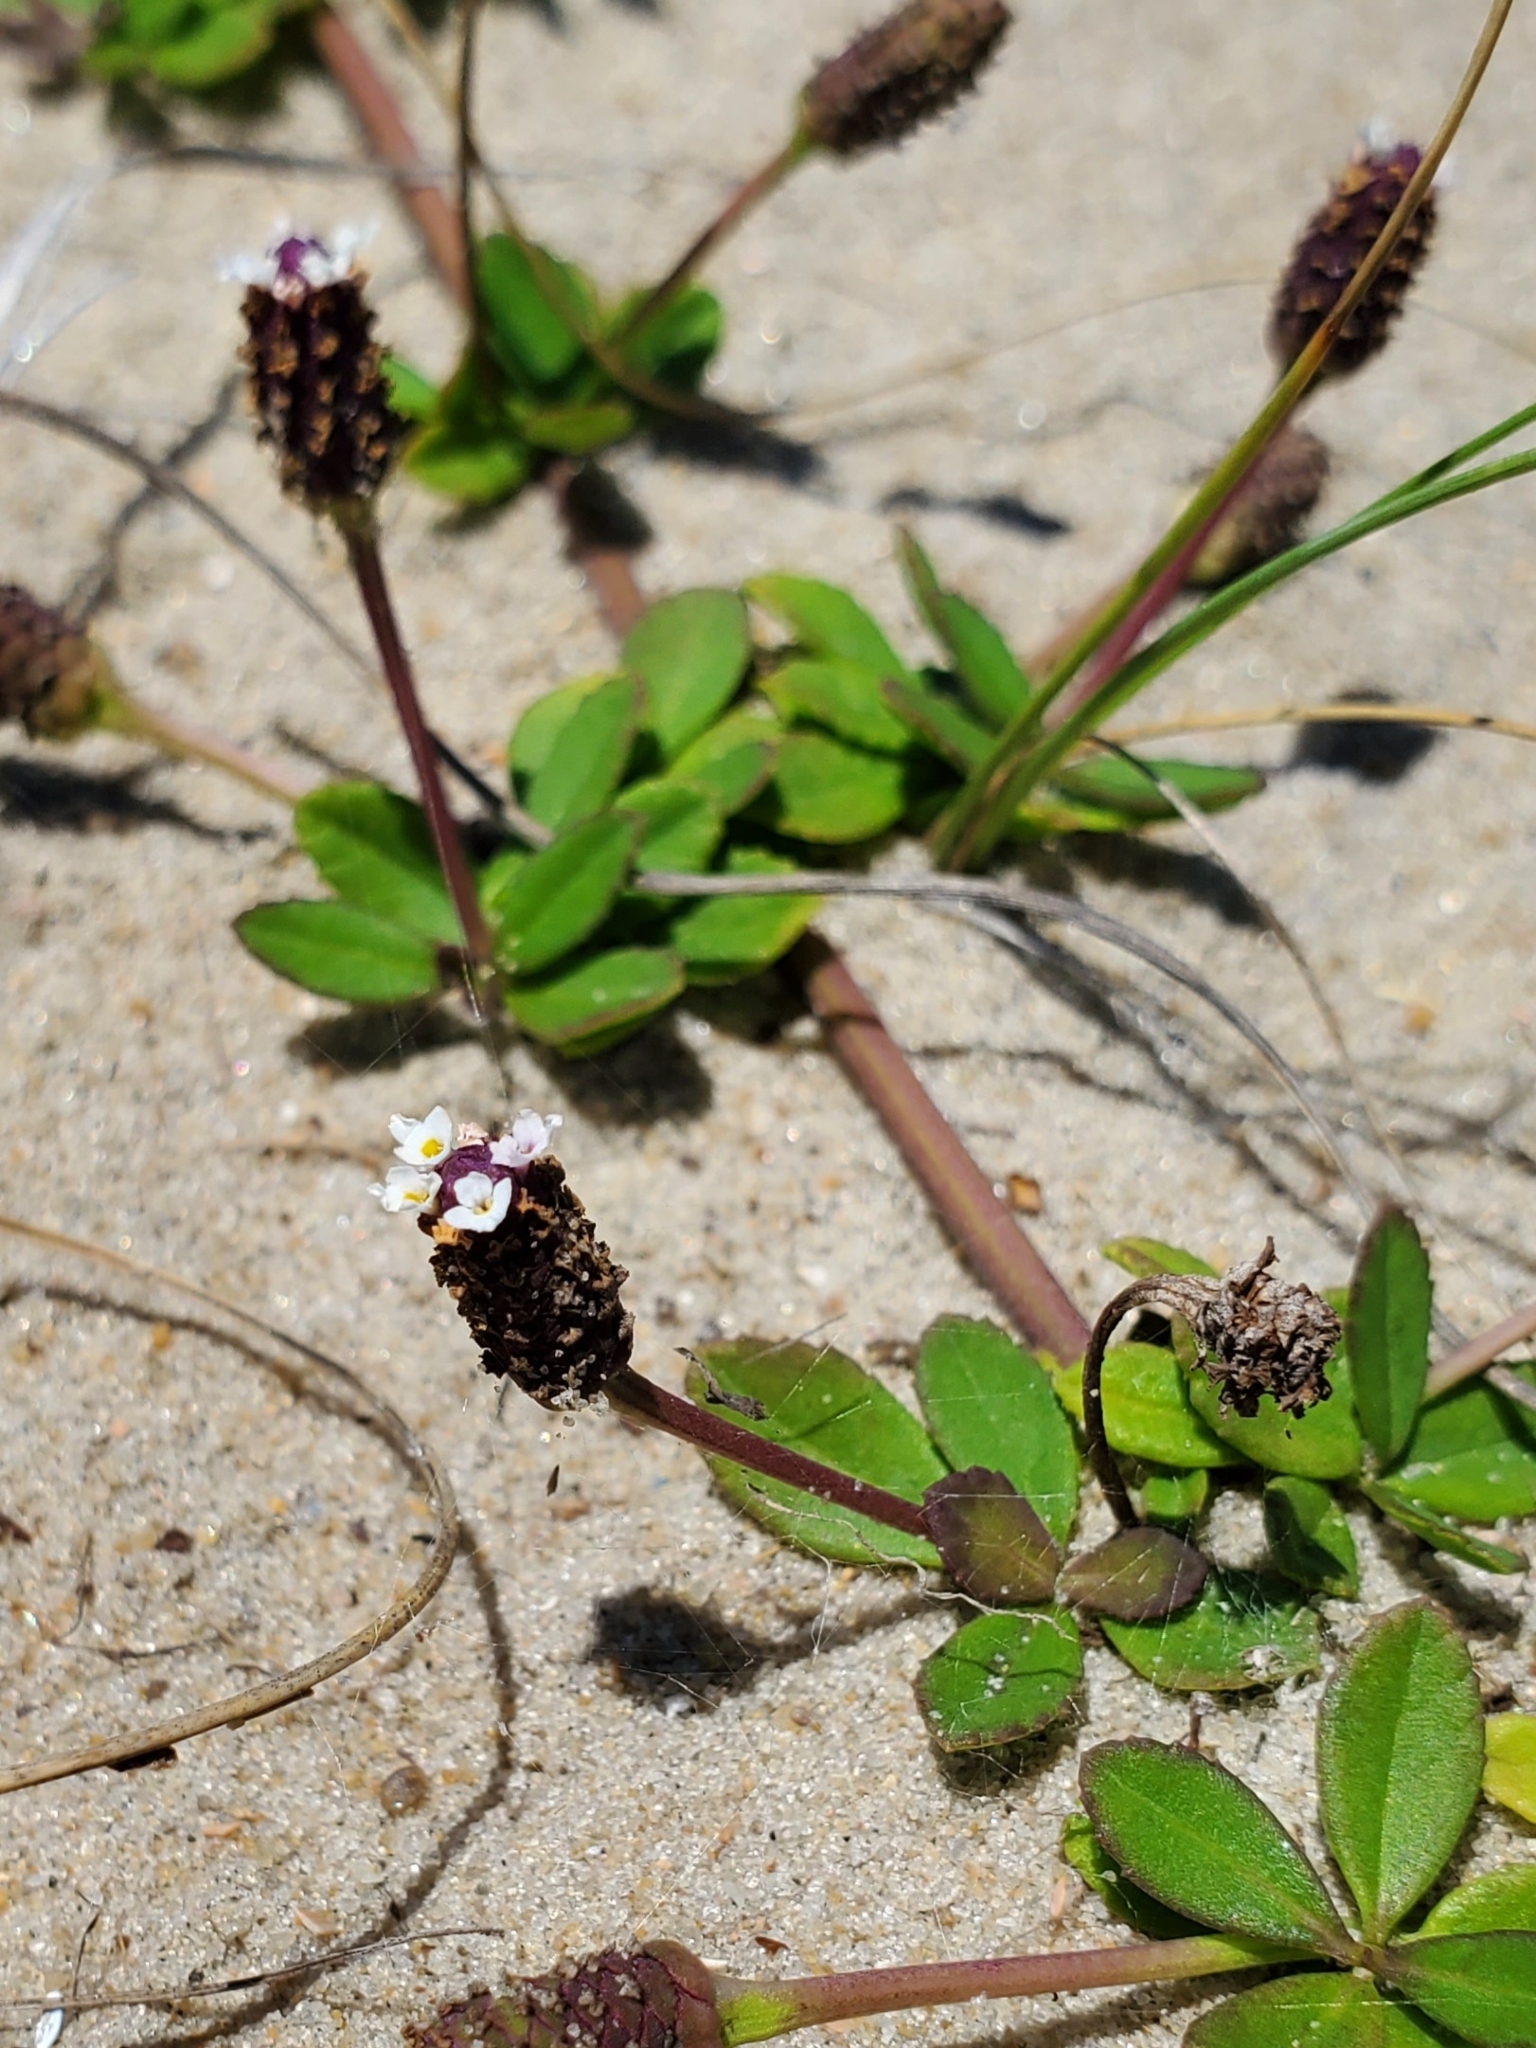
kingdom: Plantae
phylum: Tracheophyta
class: Magnoliopsida
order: Lamiales
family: Verbenaceae
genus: Phyla
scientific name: Phyla nodiflora
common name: Frogfruit
